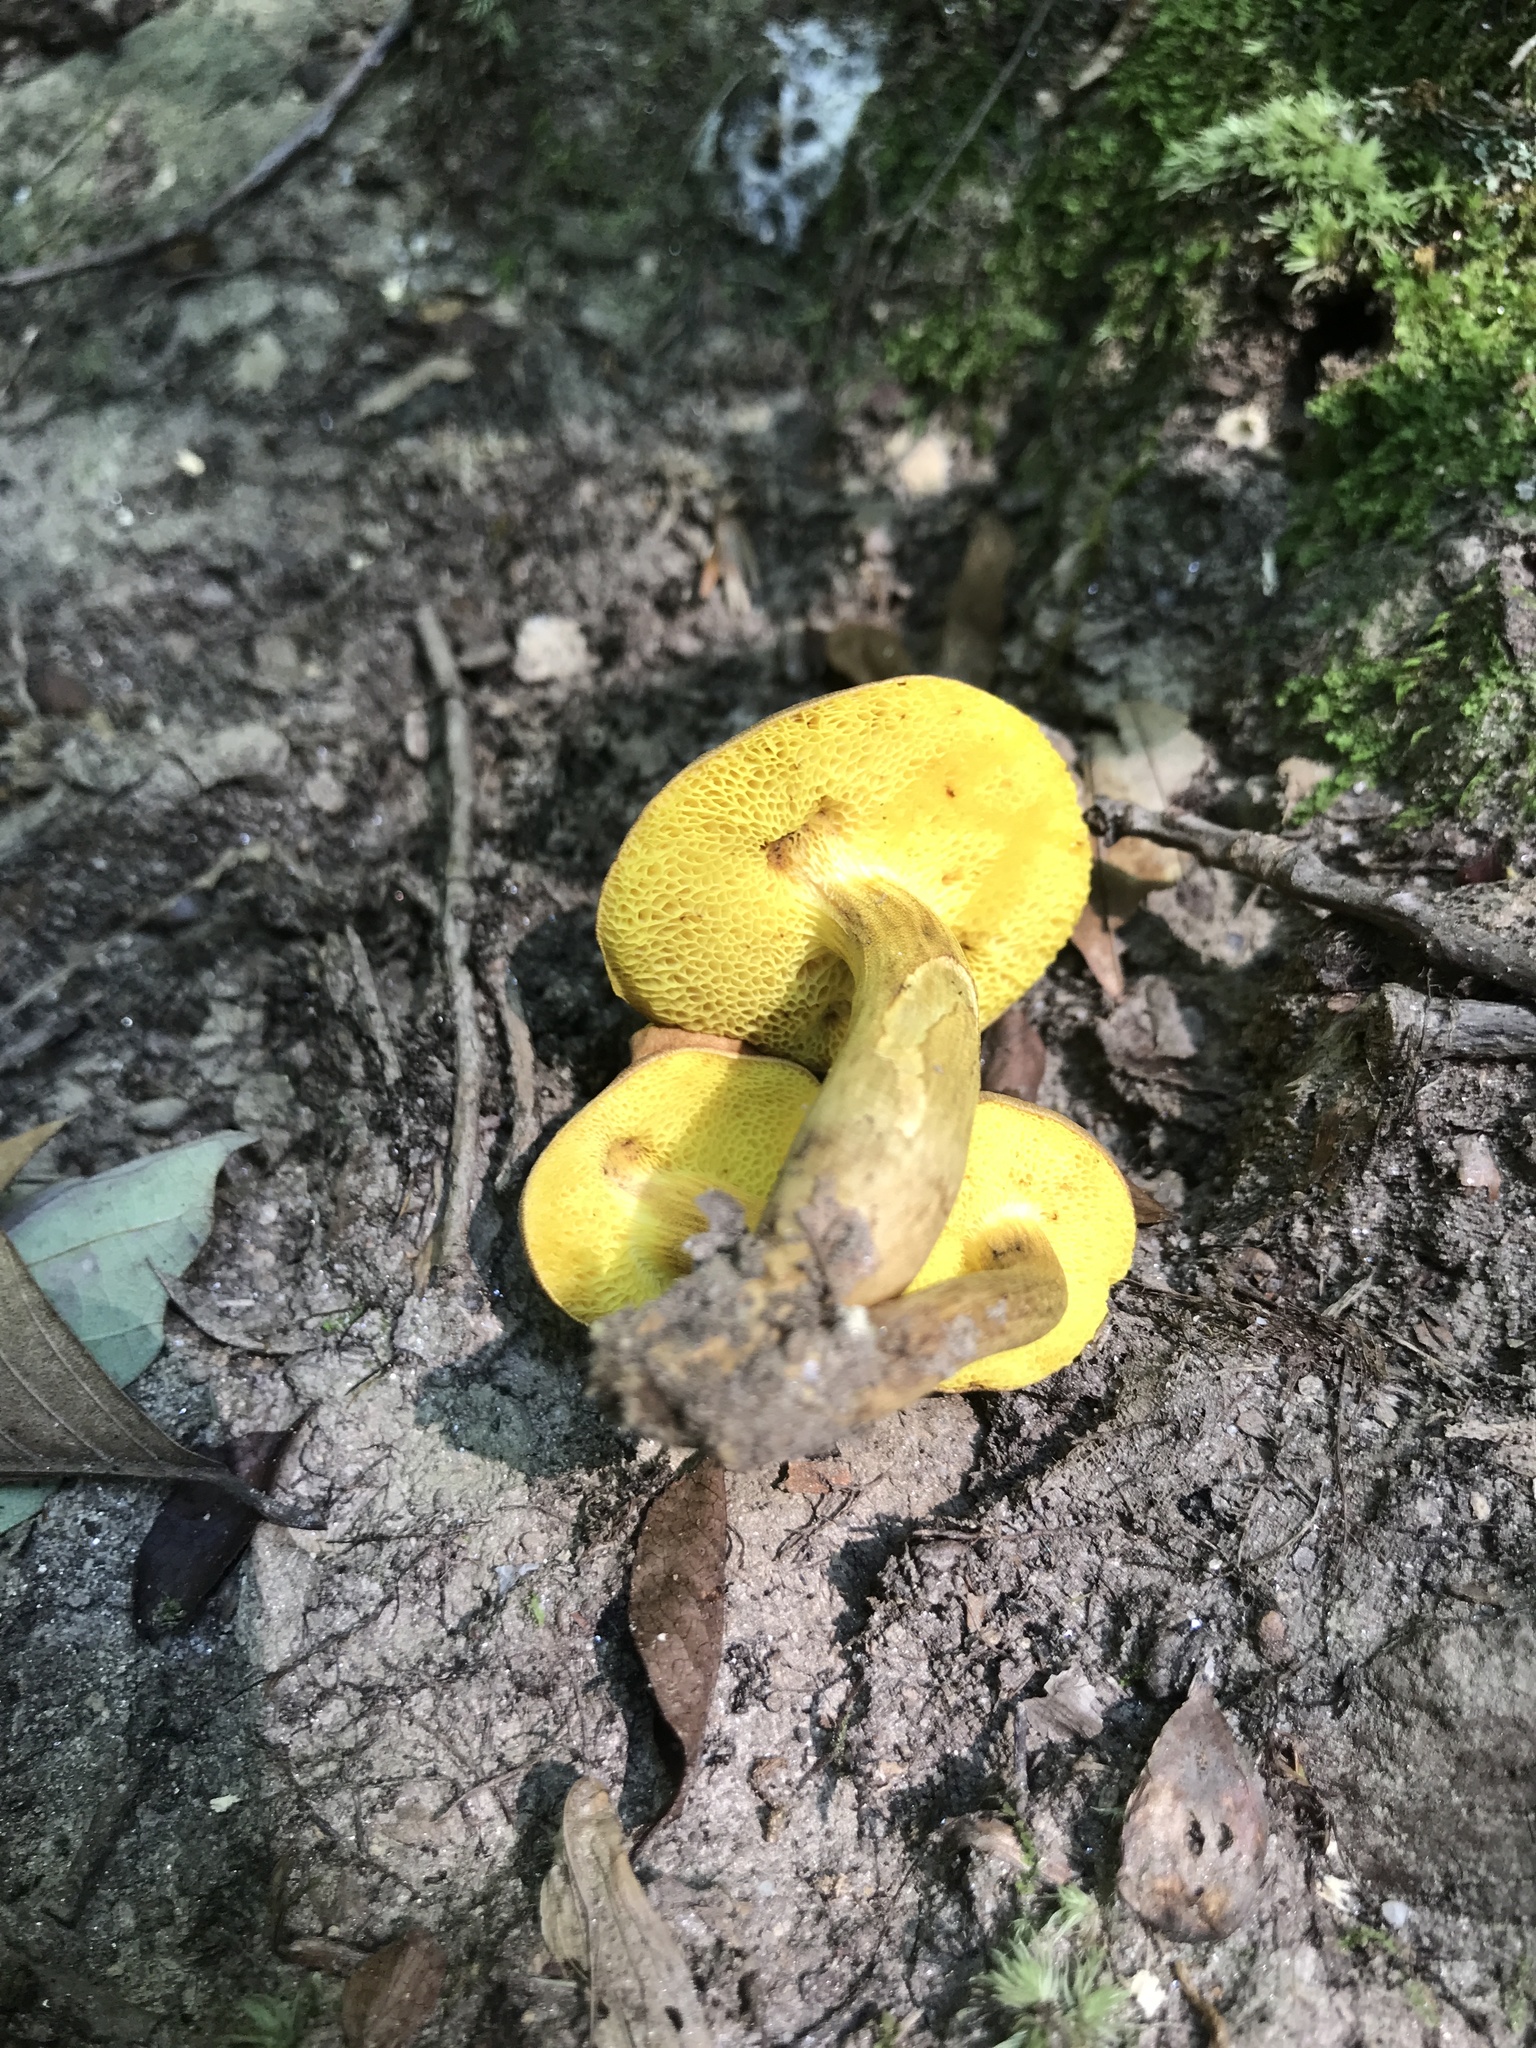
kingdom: Fungi
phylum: Basidiomycota
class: Agaricomycetes
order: Boletales
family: Boletaceae
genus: Aureoboletus
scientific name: Aureoboletus innixus
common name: Clustered brown bolete
